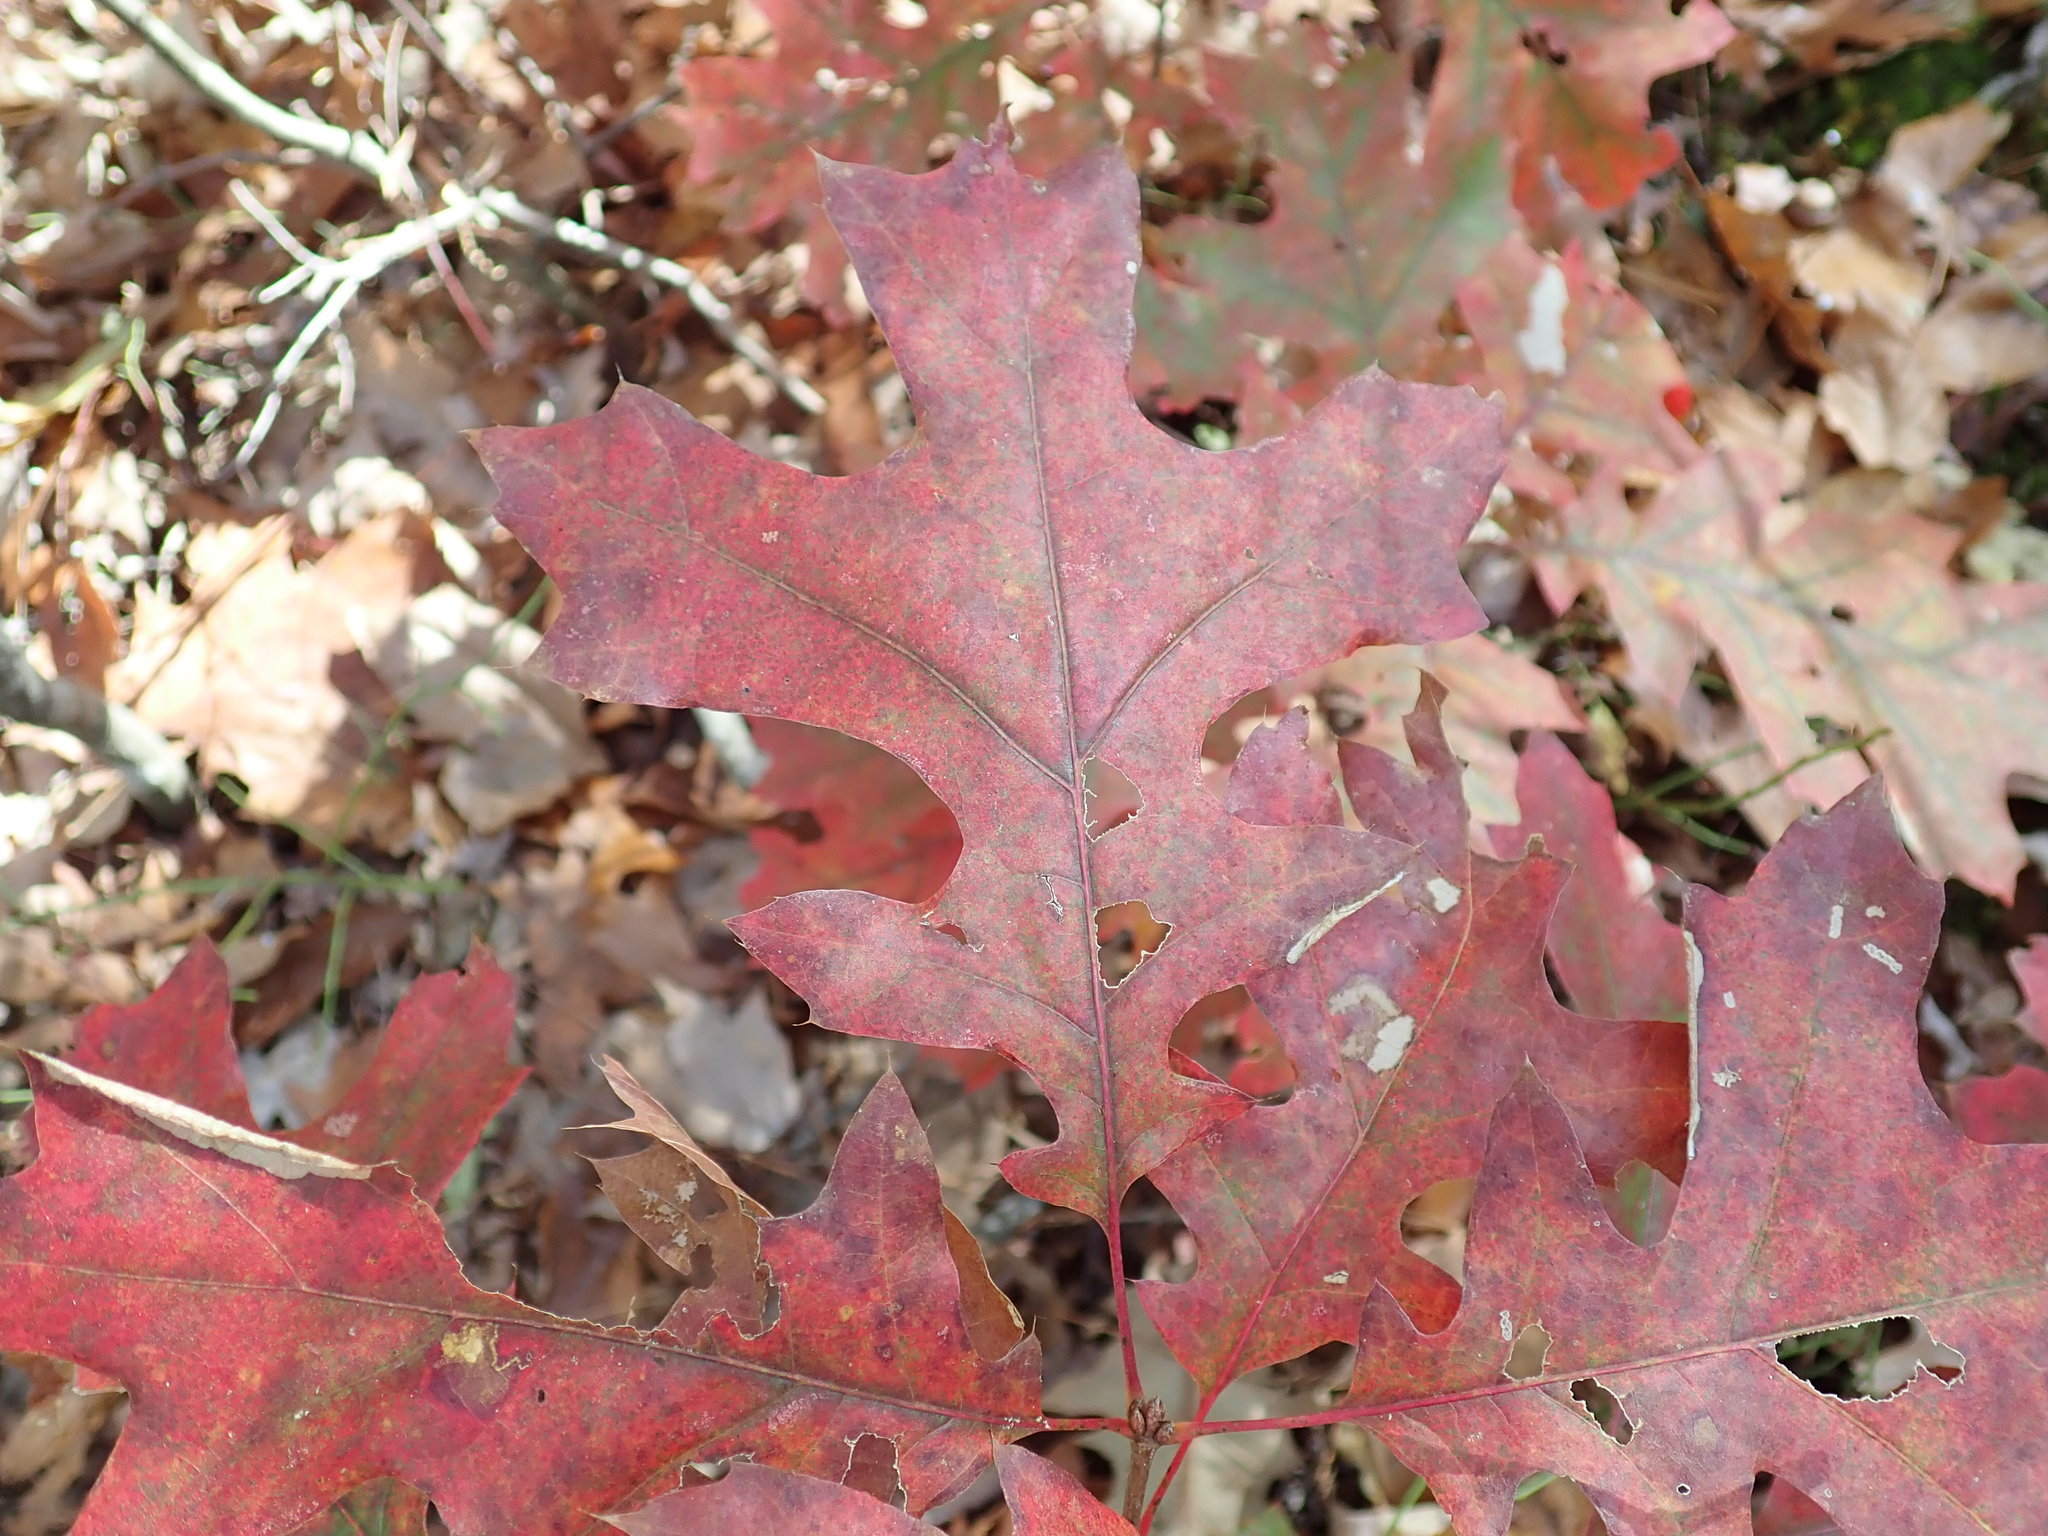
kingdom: Plantae
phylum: Tracheophyta
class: Magnoliopsida
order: Fagales
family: Fagaceae
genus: Quercus
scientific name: Quercus coccinea
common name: Scarlet oak
